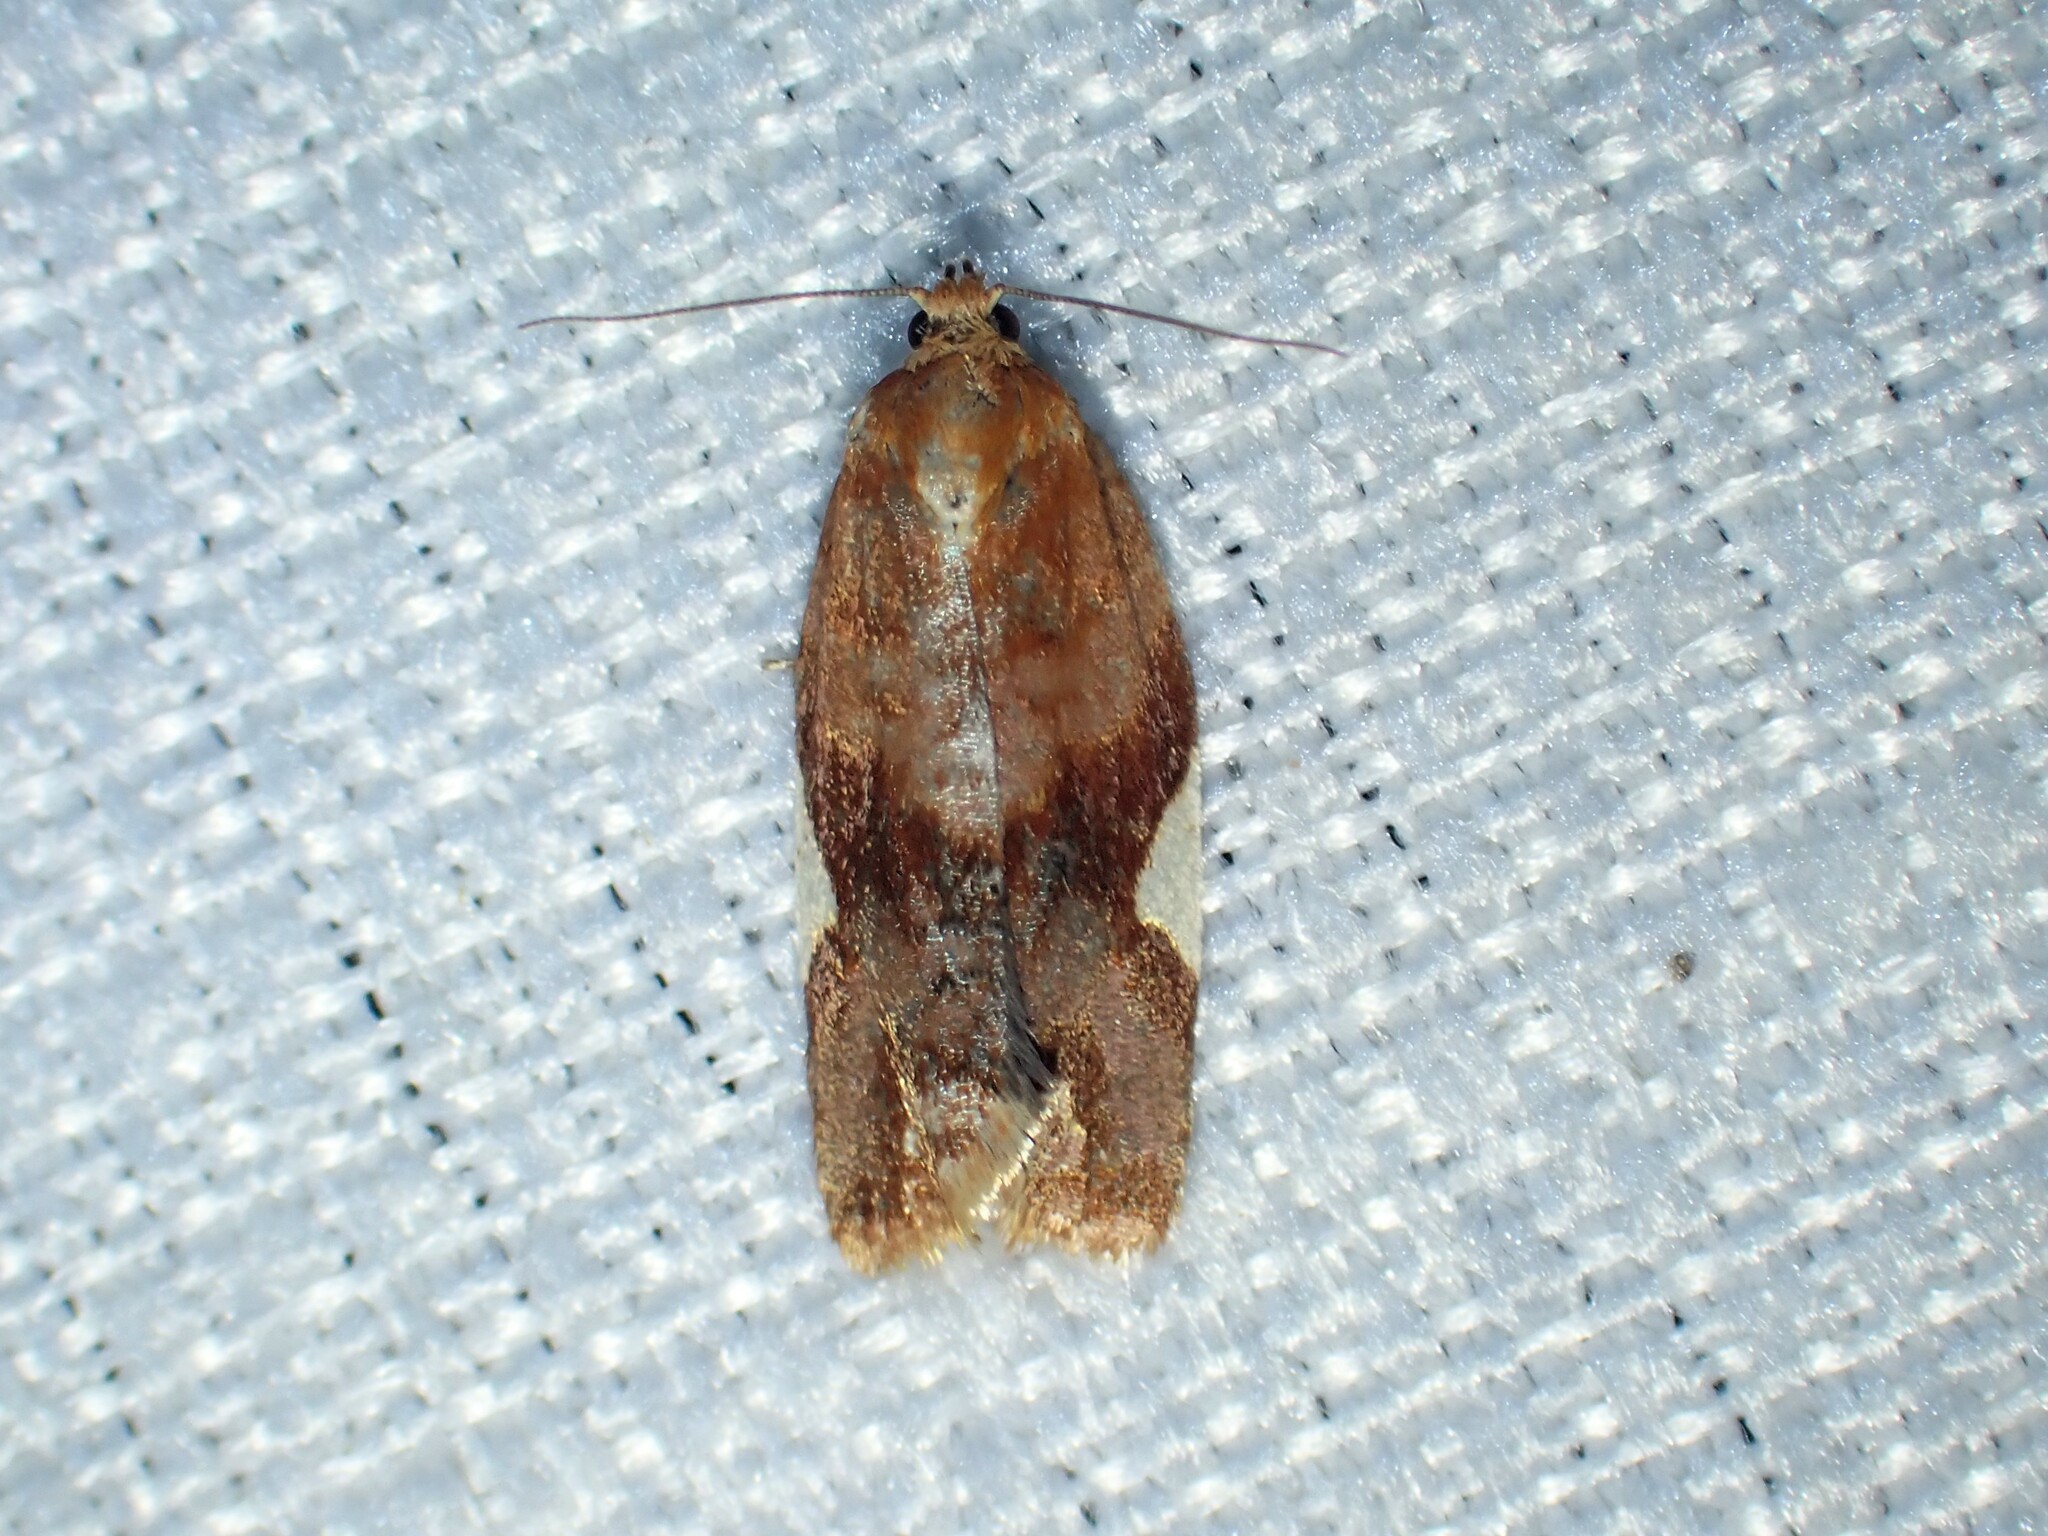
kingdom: Animalia
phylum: Arthropoda
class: Insecta
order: Lepidoptera
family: Tortricidae
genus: Clepsis
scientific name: Clepsis persicana
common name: White triangle tortrix
